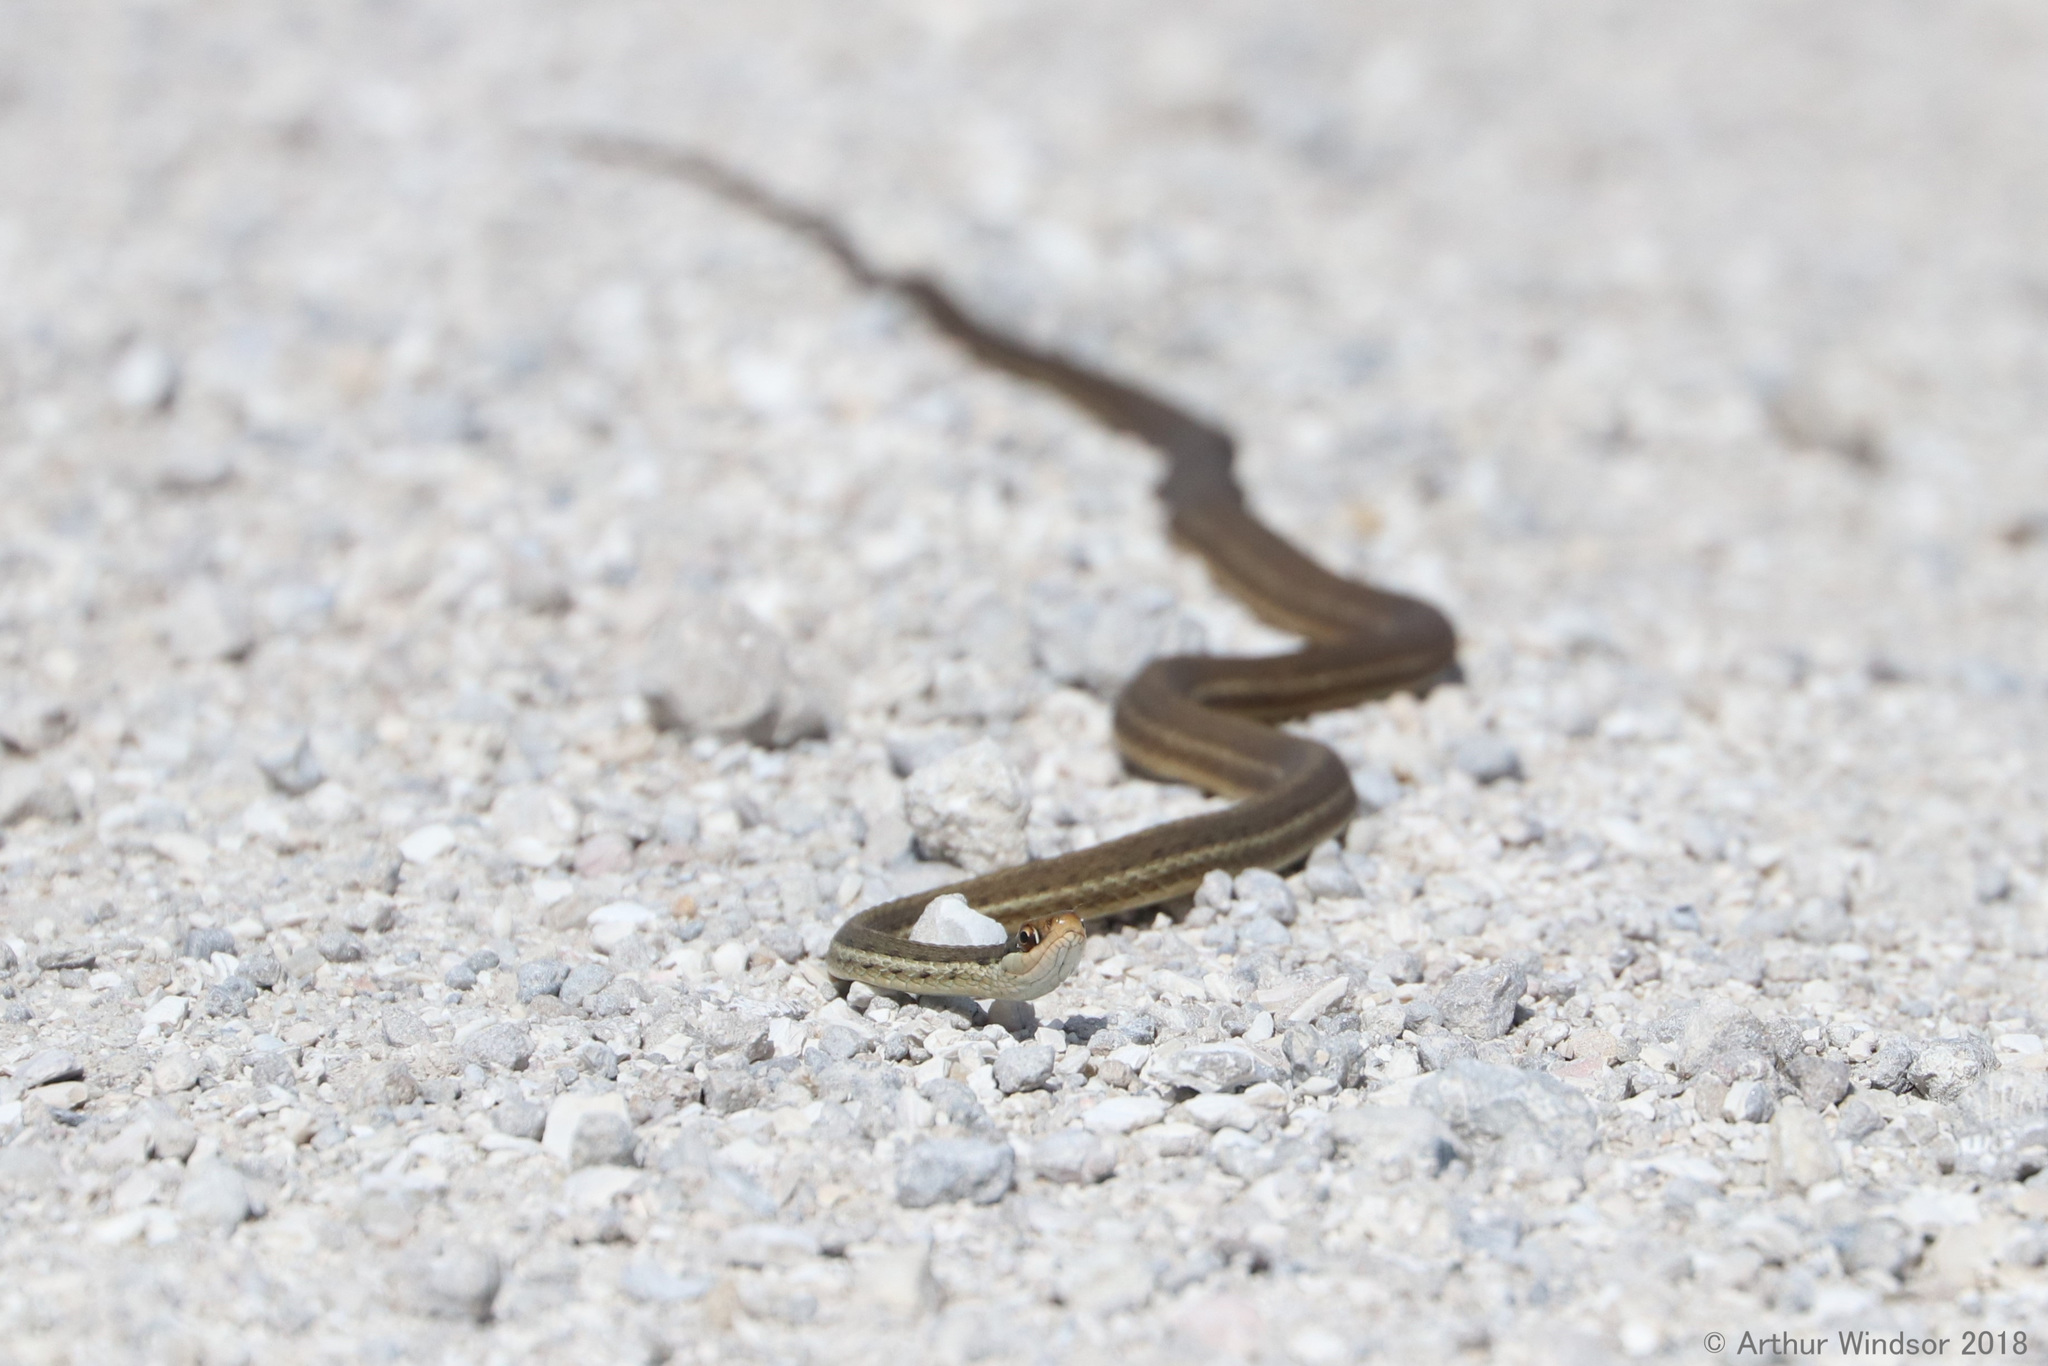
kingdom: Animalia
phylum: Chordata
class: Squamata
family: Colubridae
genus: Thamnophis
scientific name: Thamnophis saurita
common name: Eastern ribbonsnake
